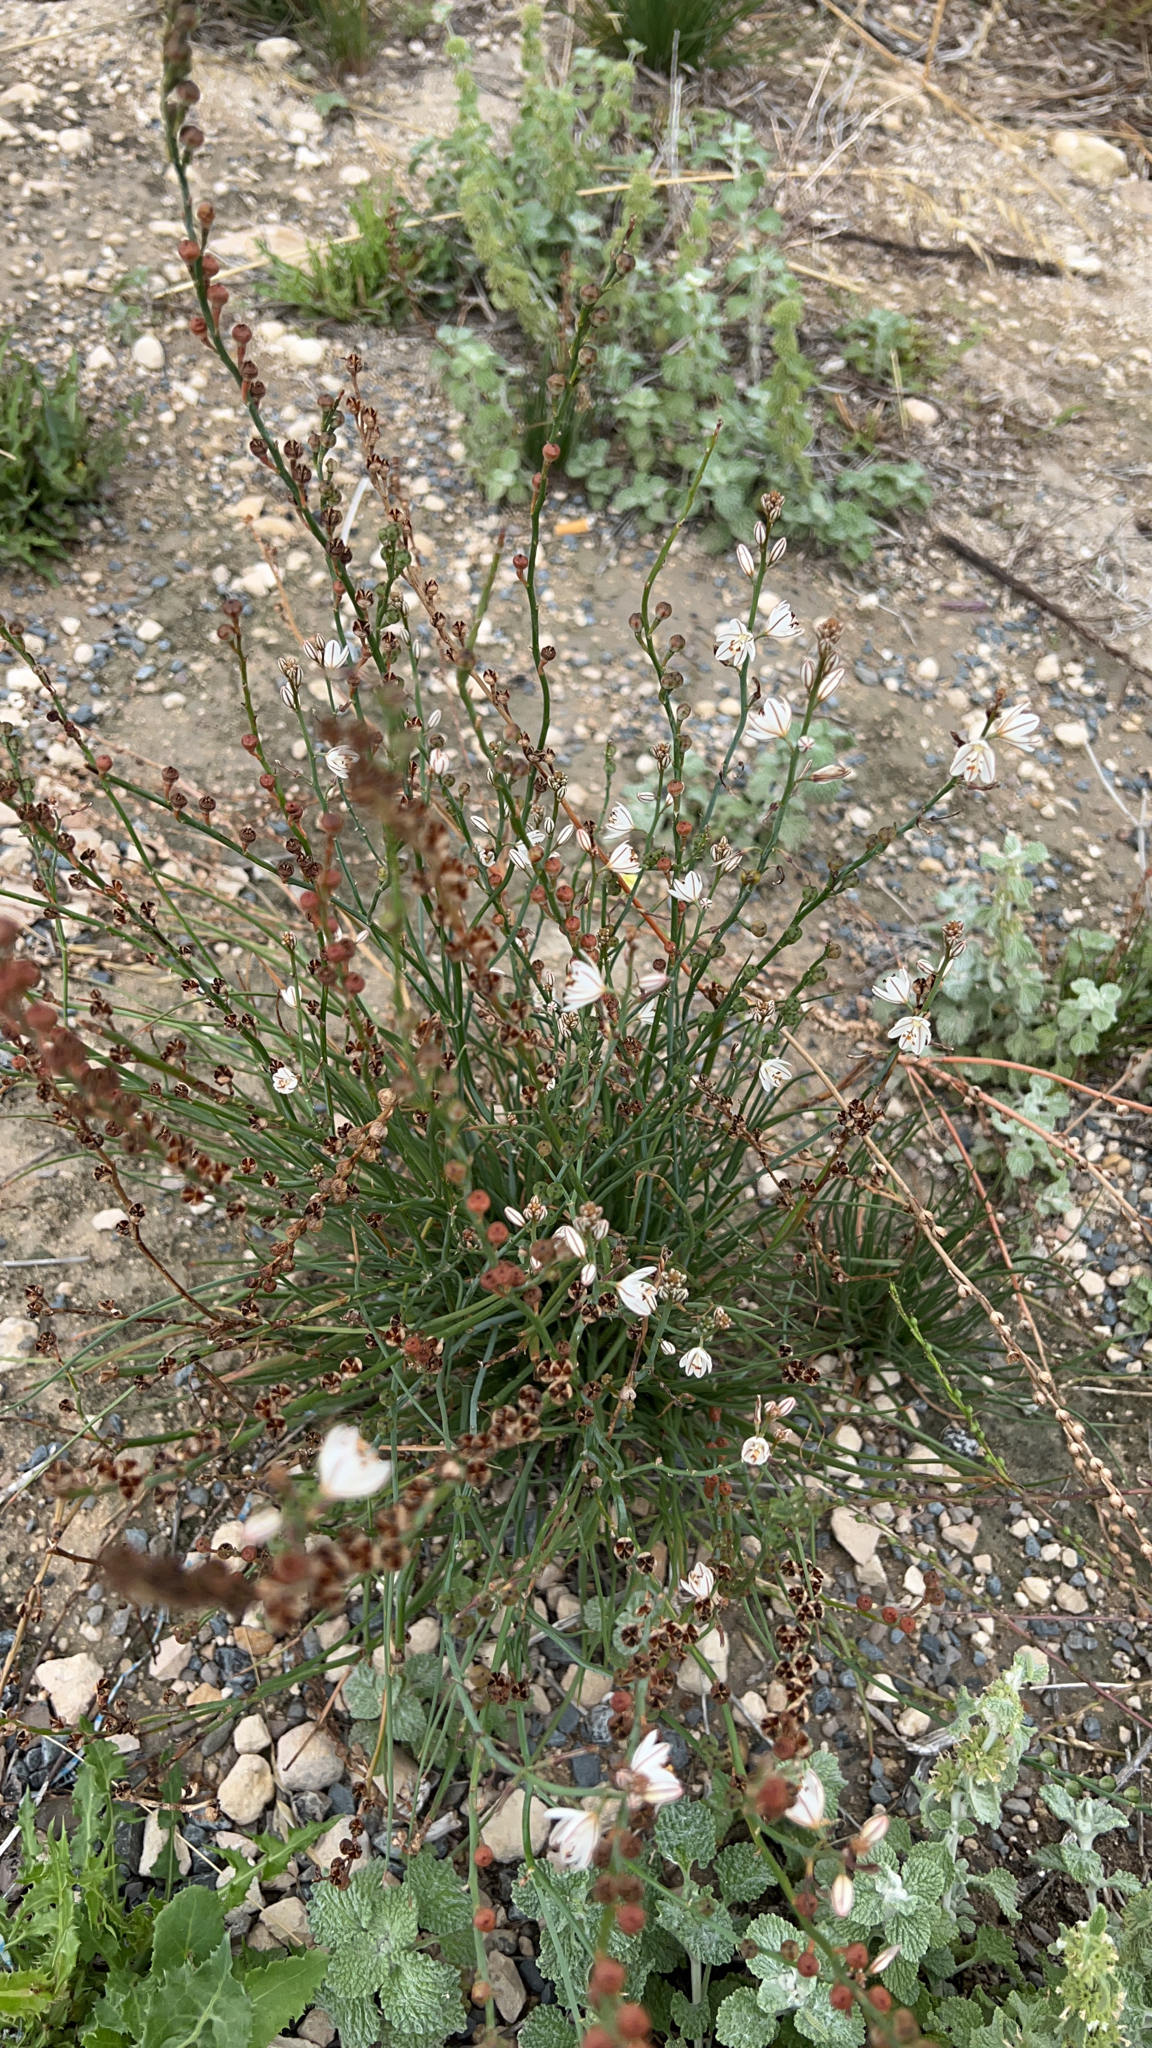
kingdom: Plantae
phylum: Tracheophyta
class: Liliopsida
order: Asparagales
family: Asphodelaceae
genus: Asphodelus
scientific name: Asphodelus fistulosus
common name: Onionweed
